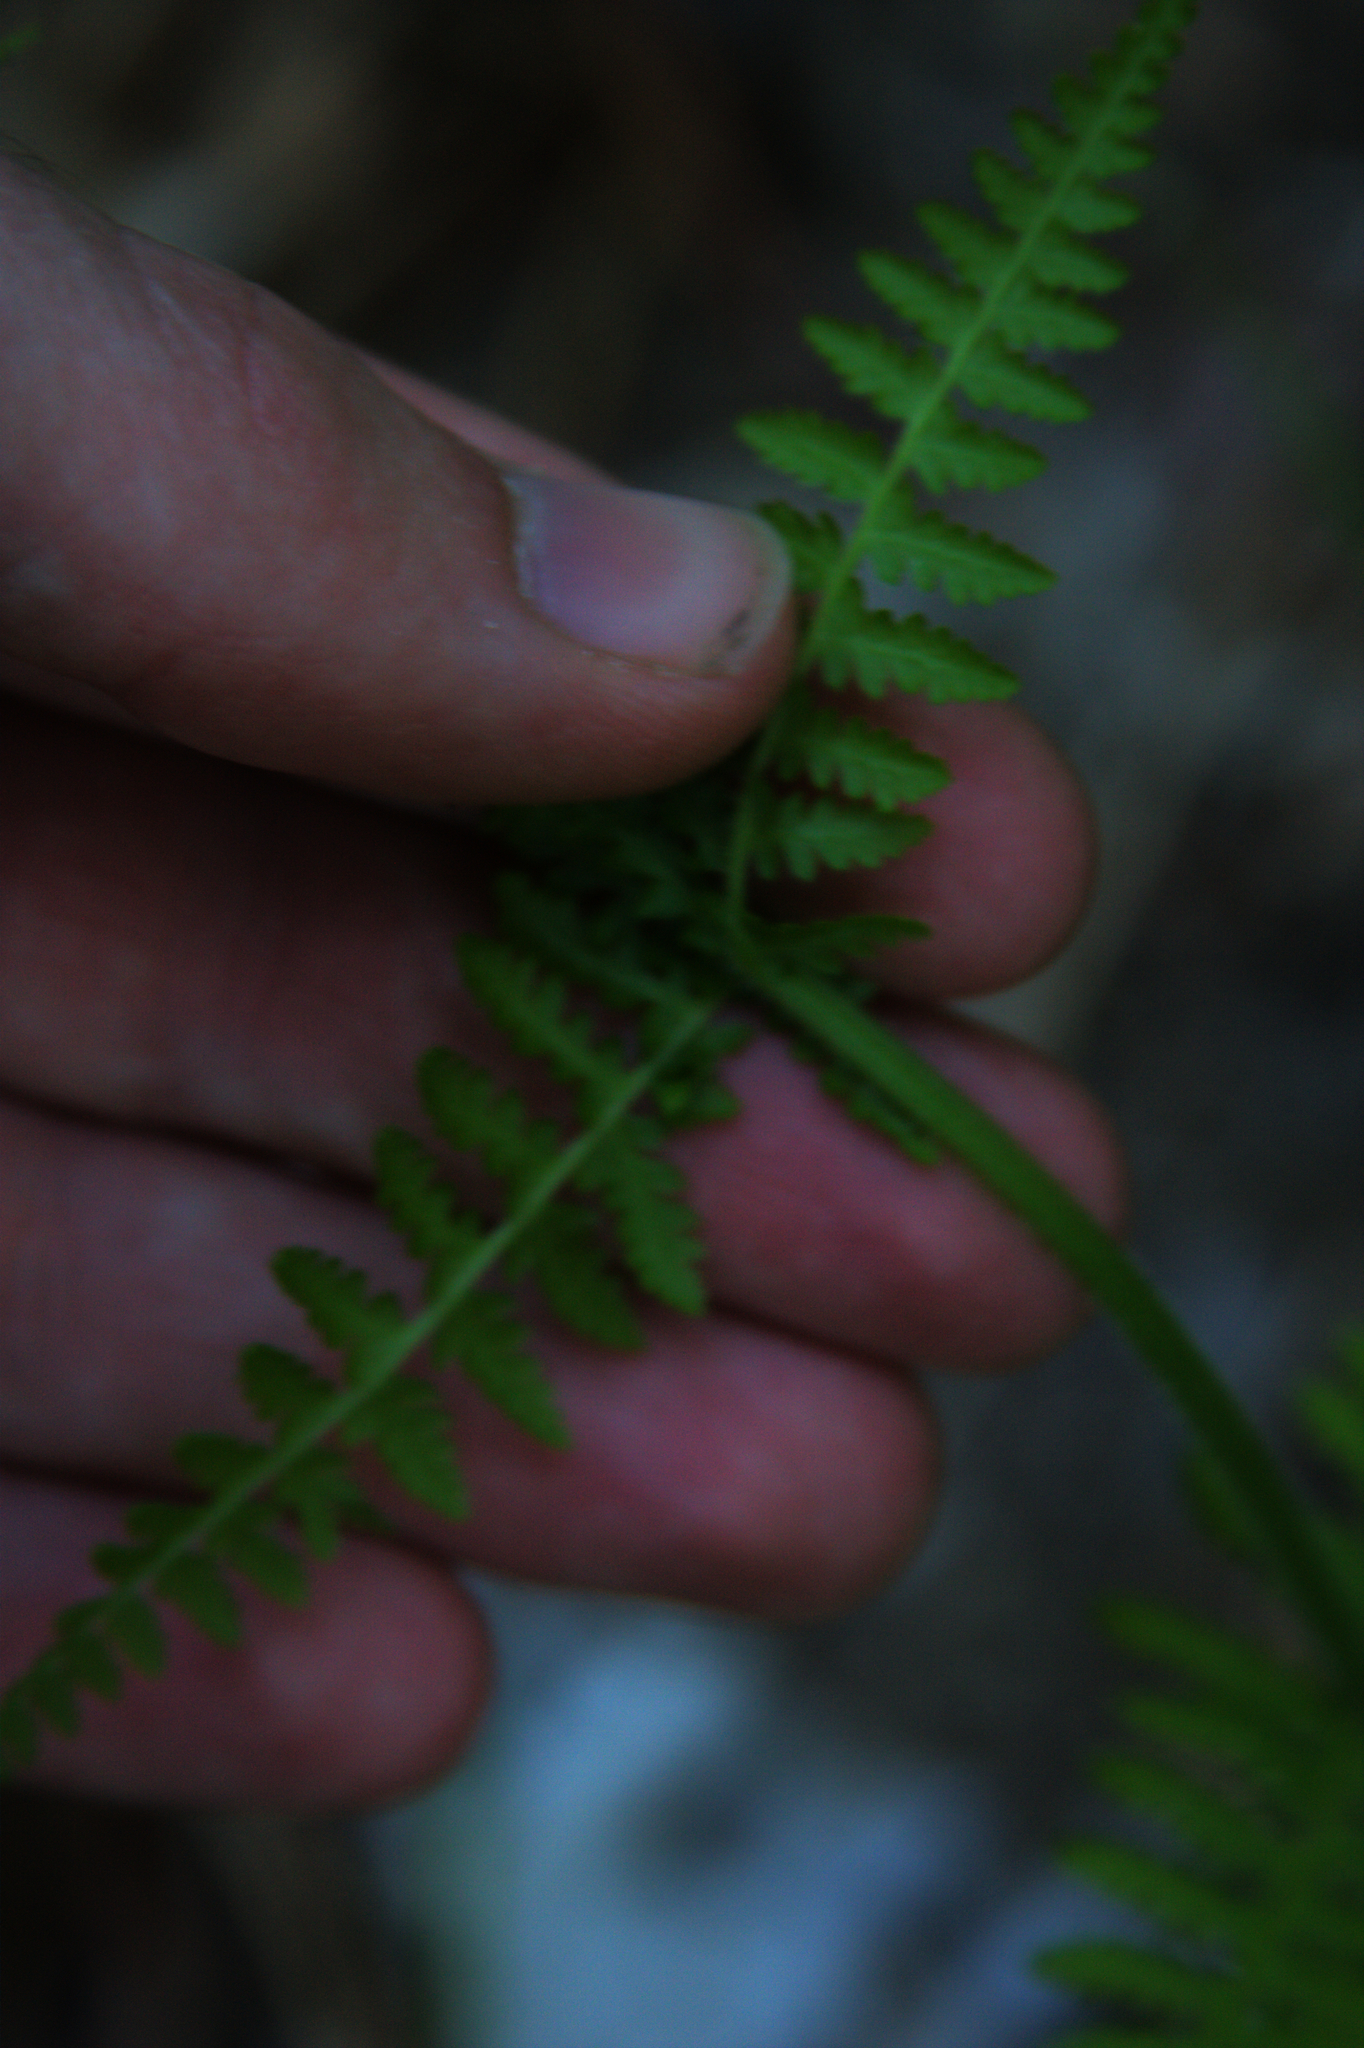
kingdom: Plantae
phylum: Tracheophyta
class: Polypodiopsida
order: Polypodiales
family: Dennstaedtiaceae
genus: Sitobolium
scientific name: Sitobolium punctilobum
